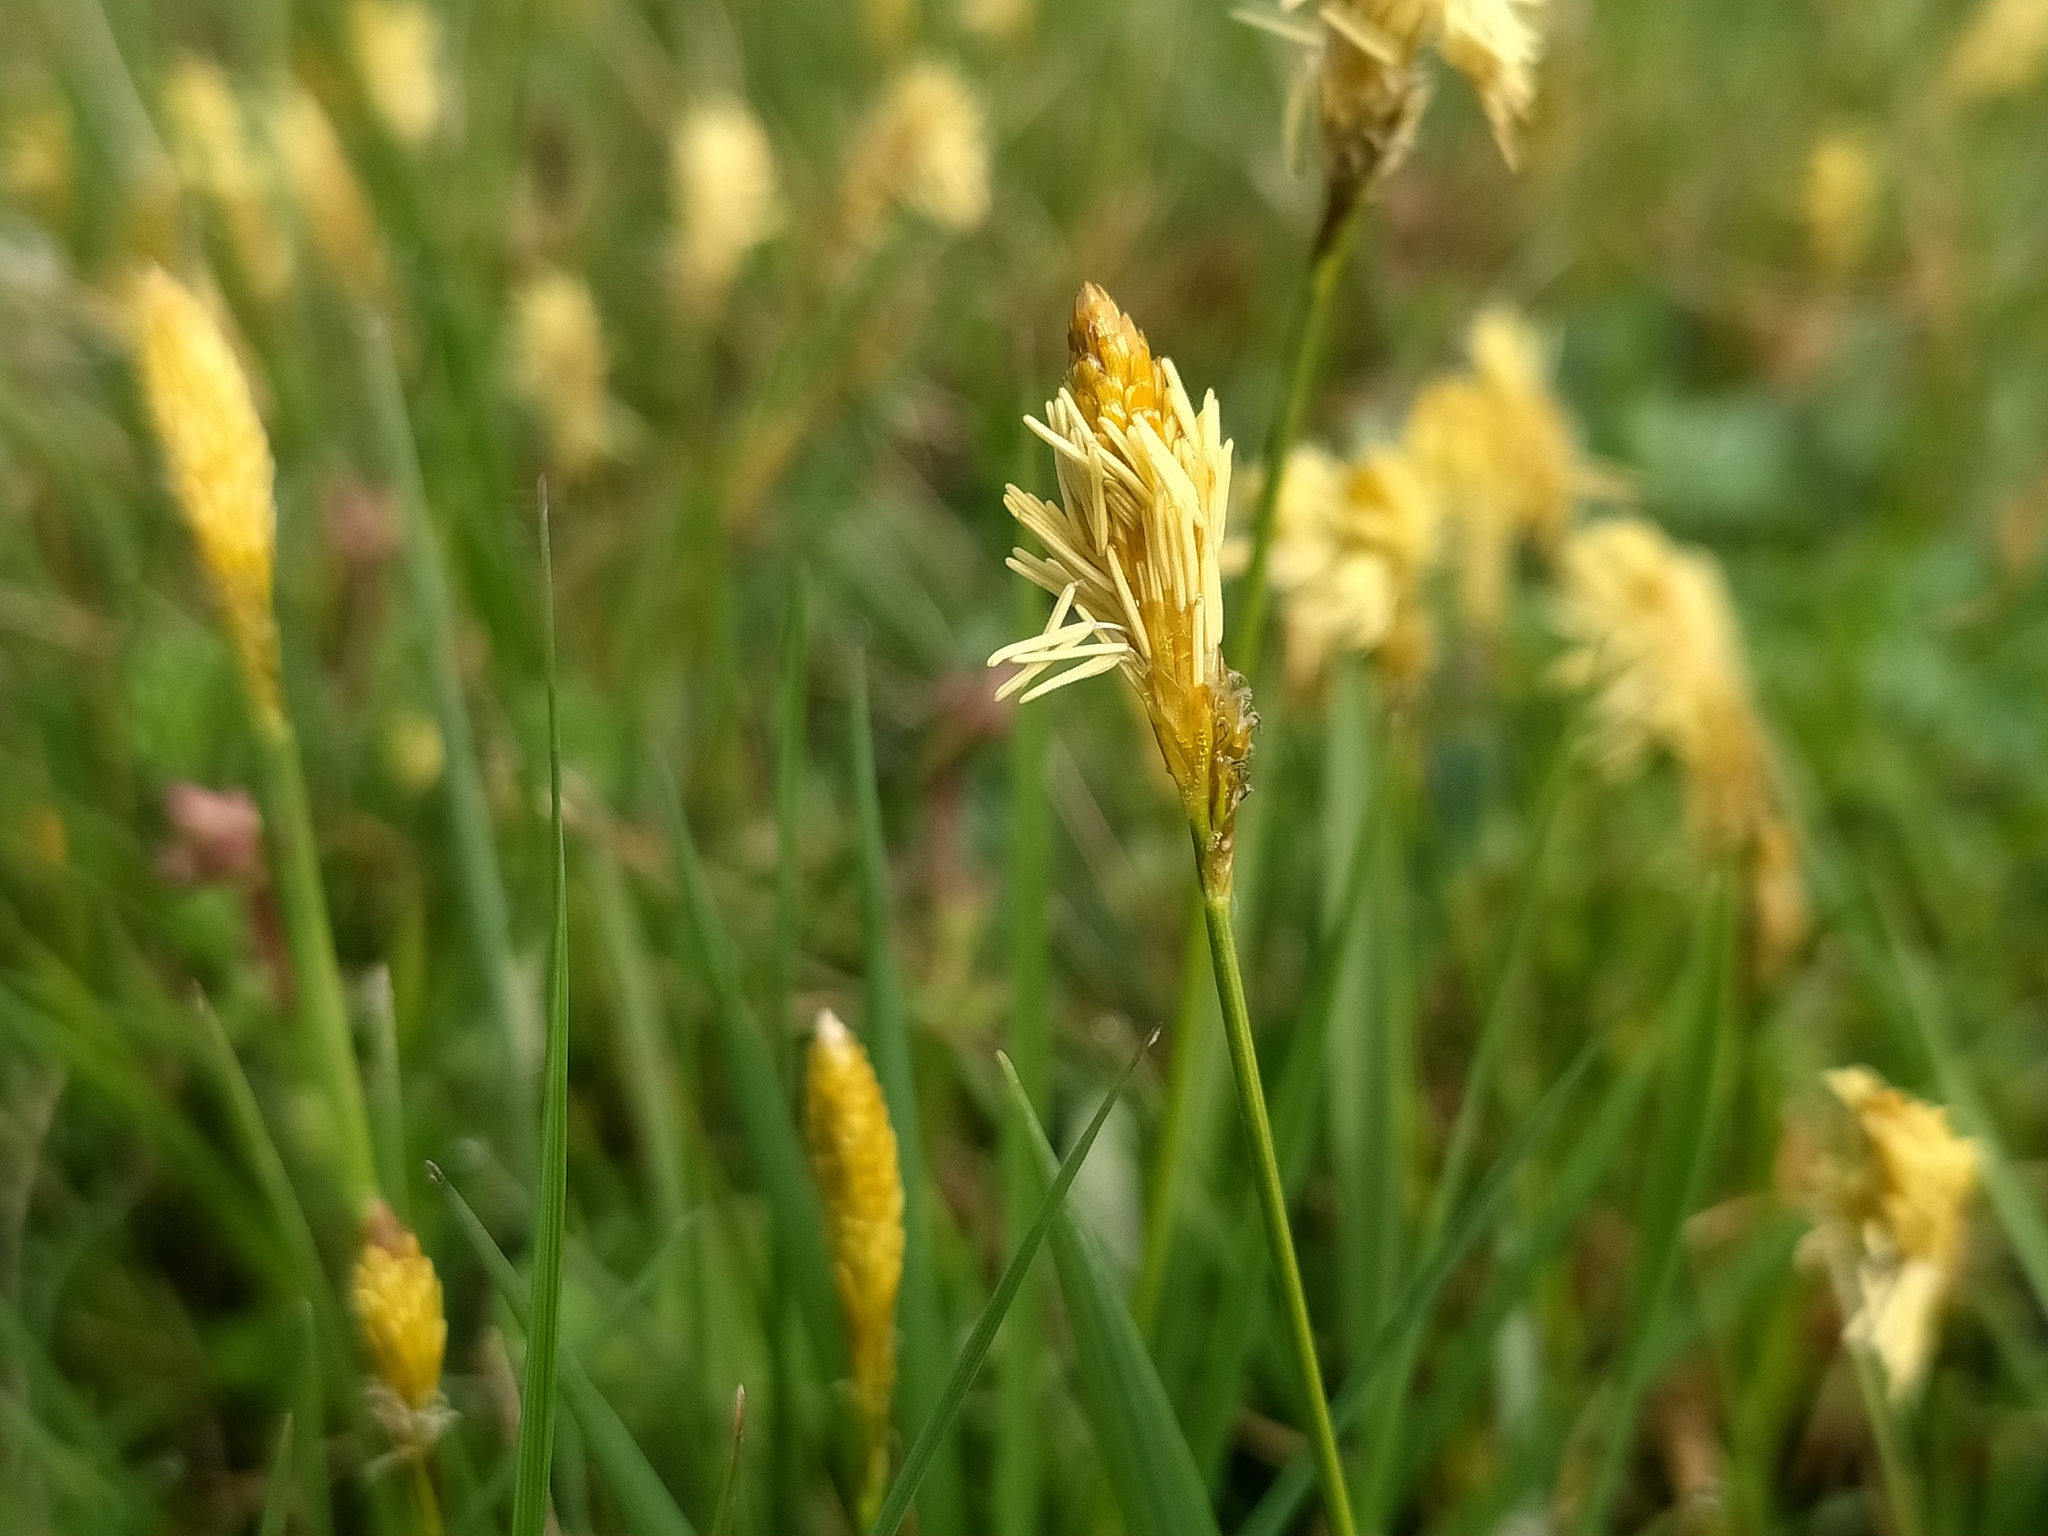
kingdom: Plantae
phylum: Tracheophyta
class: Liliopsida
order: Poales
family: Cyperaceae
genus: Carex
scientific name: Carex caryophyllea
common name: Spring sedge
